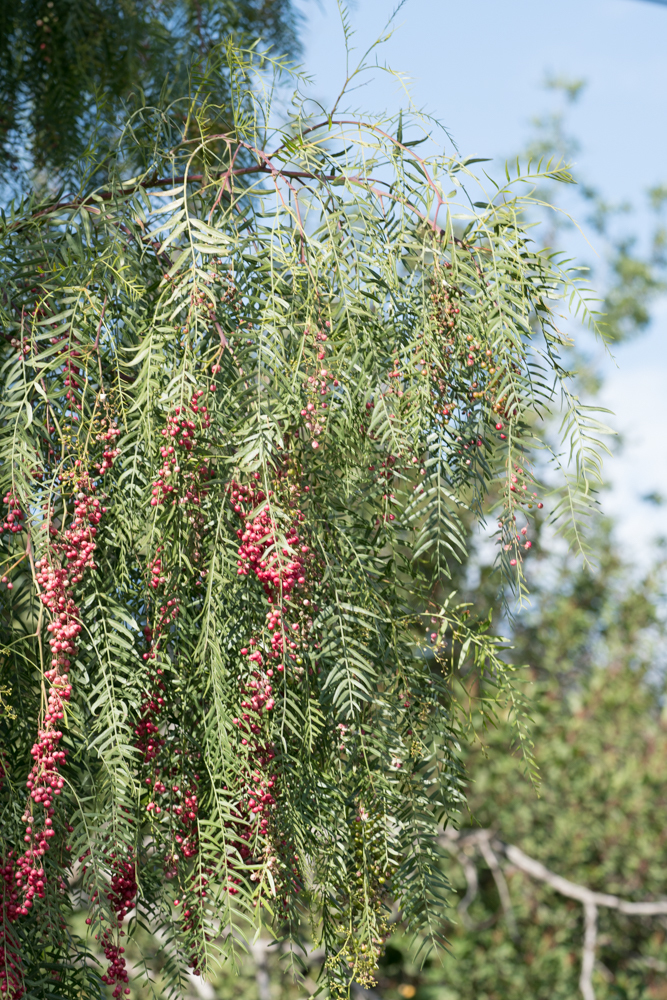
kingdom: Plantae
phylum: Tracheophyta
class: Magnoliopsida
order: Sapindales
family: Anacardiaceae
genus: Schinus
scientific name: Schinus molle
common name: Peruvian peppertree
